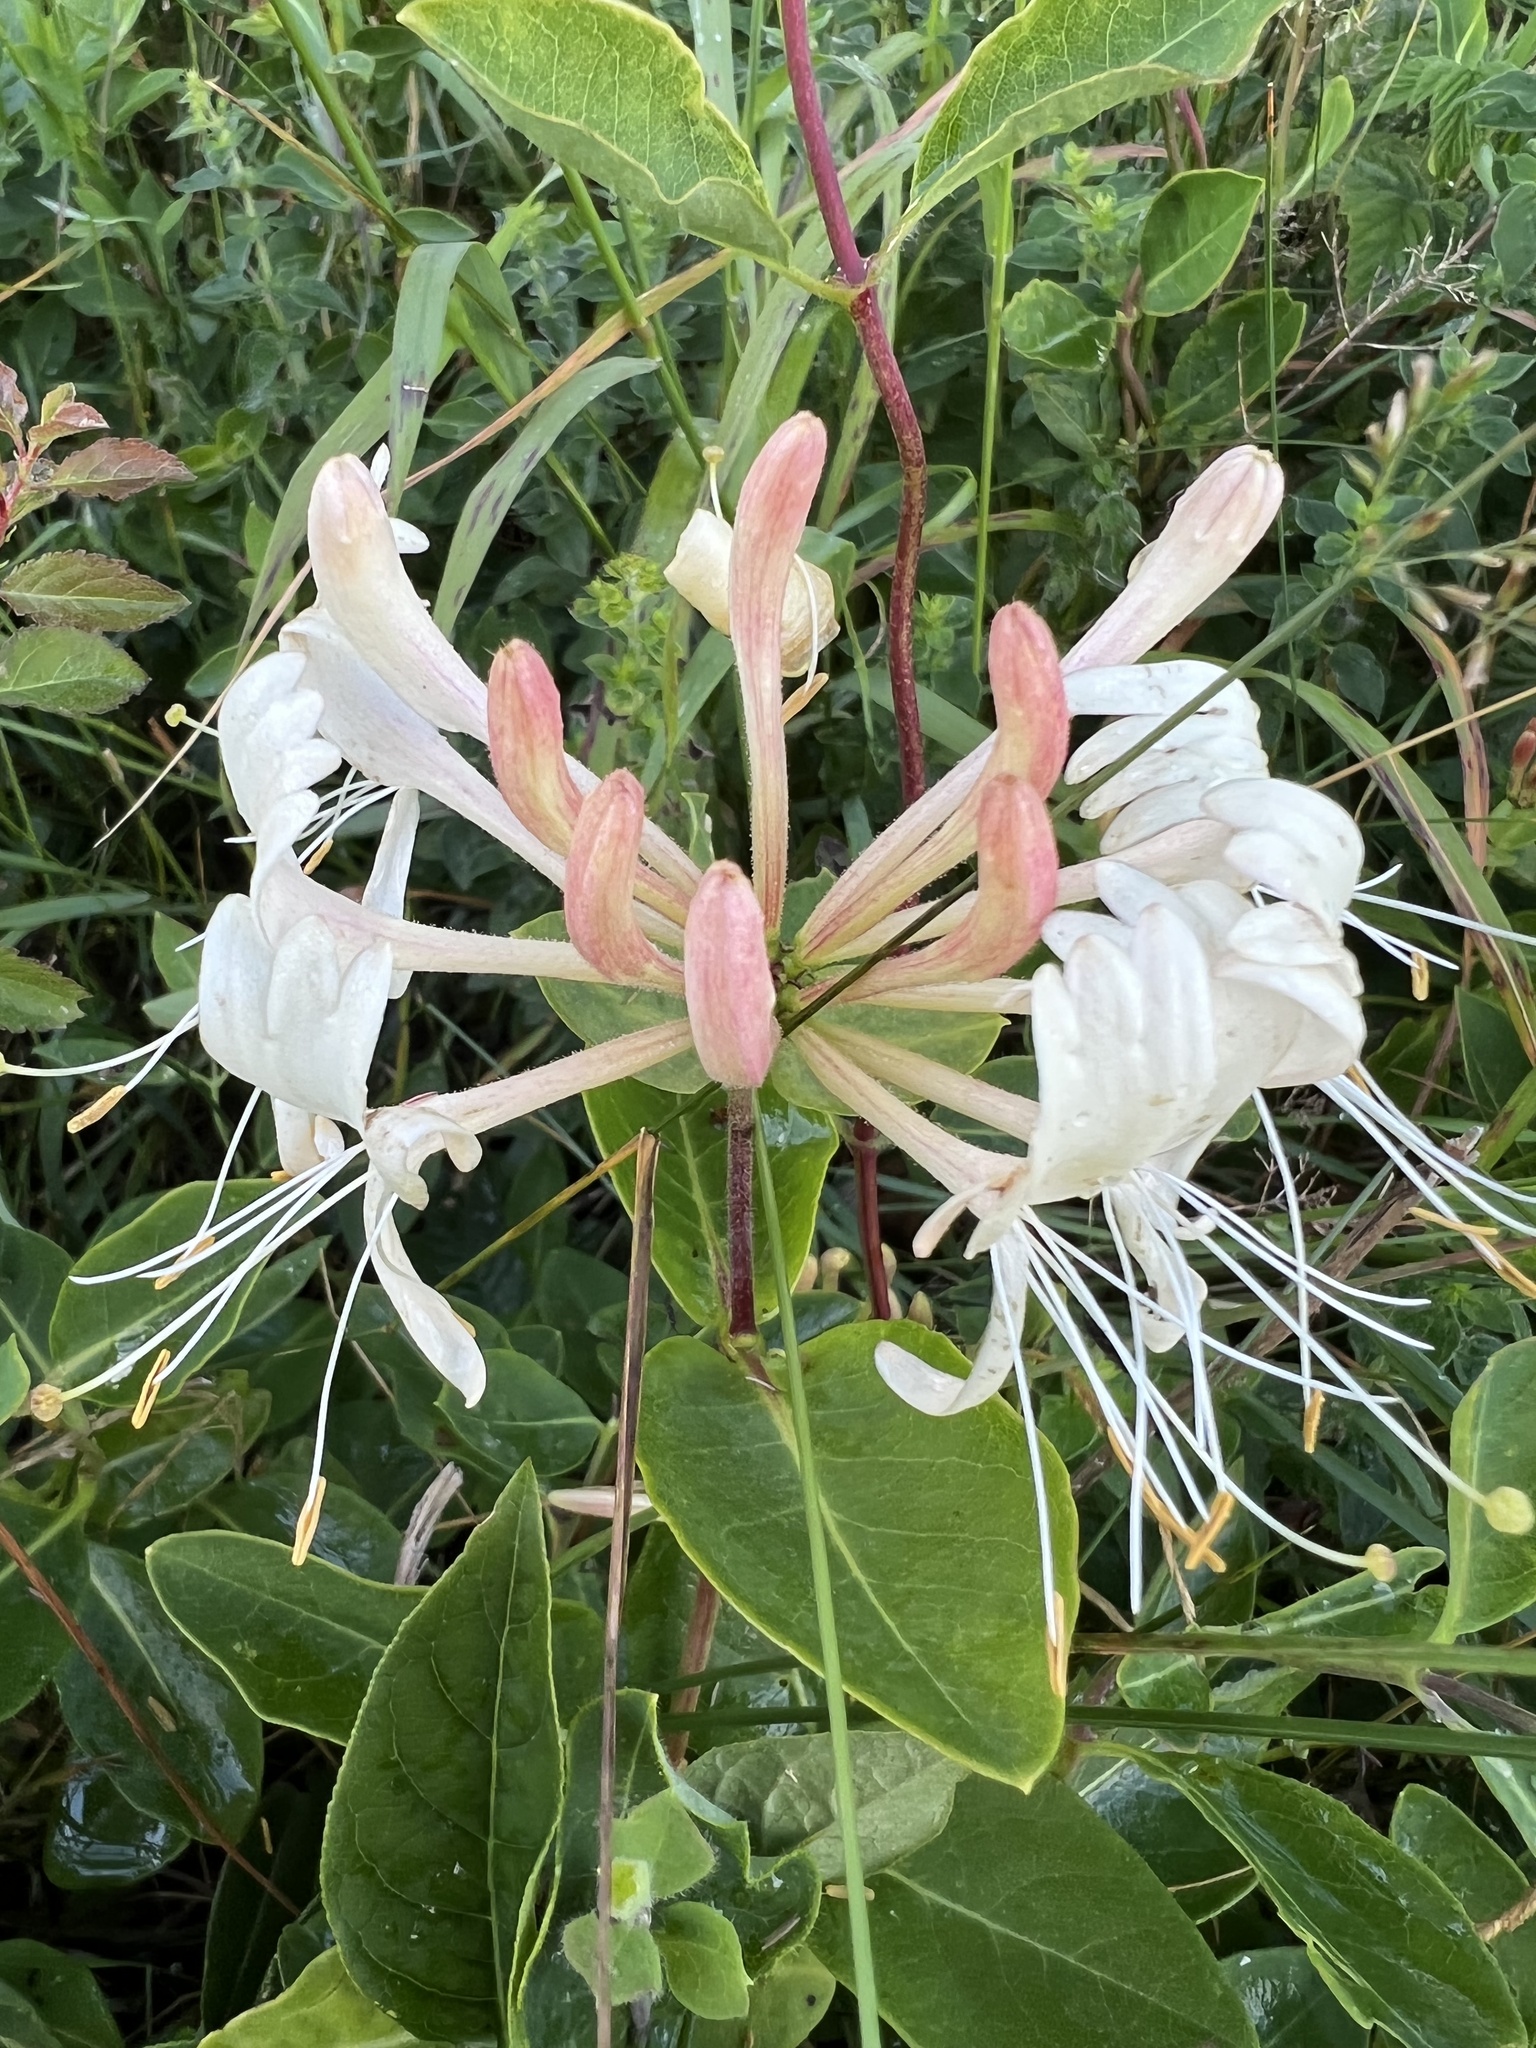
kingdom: Plantae
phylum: Tracheophyta
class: Magnoliopsida
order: Dipsacales
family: Caprifoliaceae
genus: Lonicera
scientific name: Lonicera periclymenum
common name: European honeysuckle
